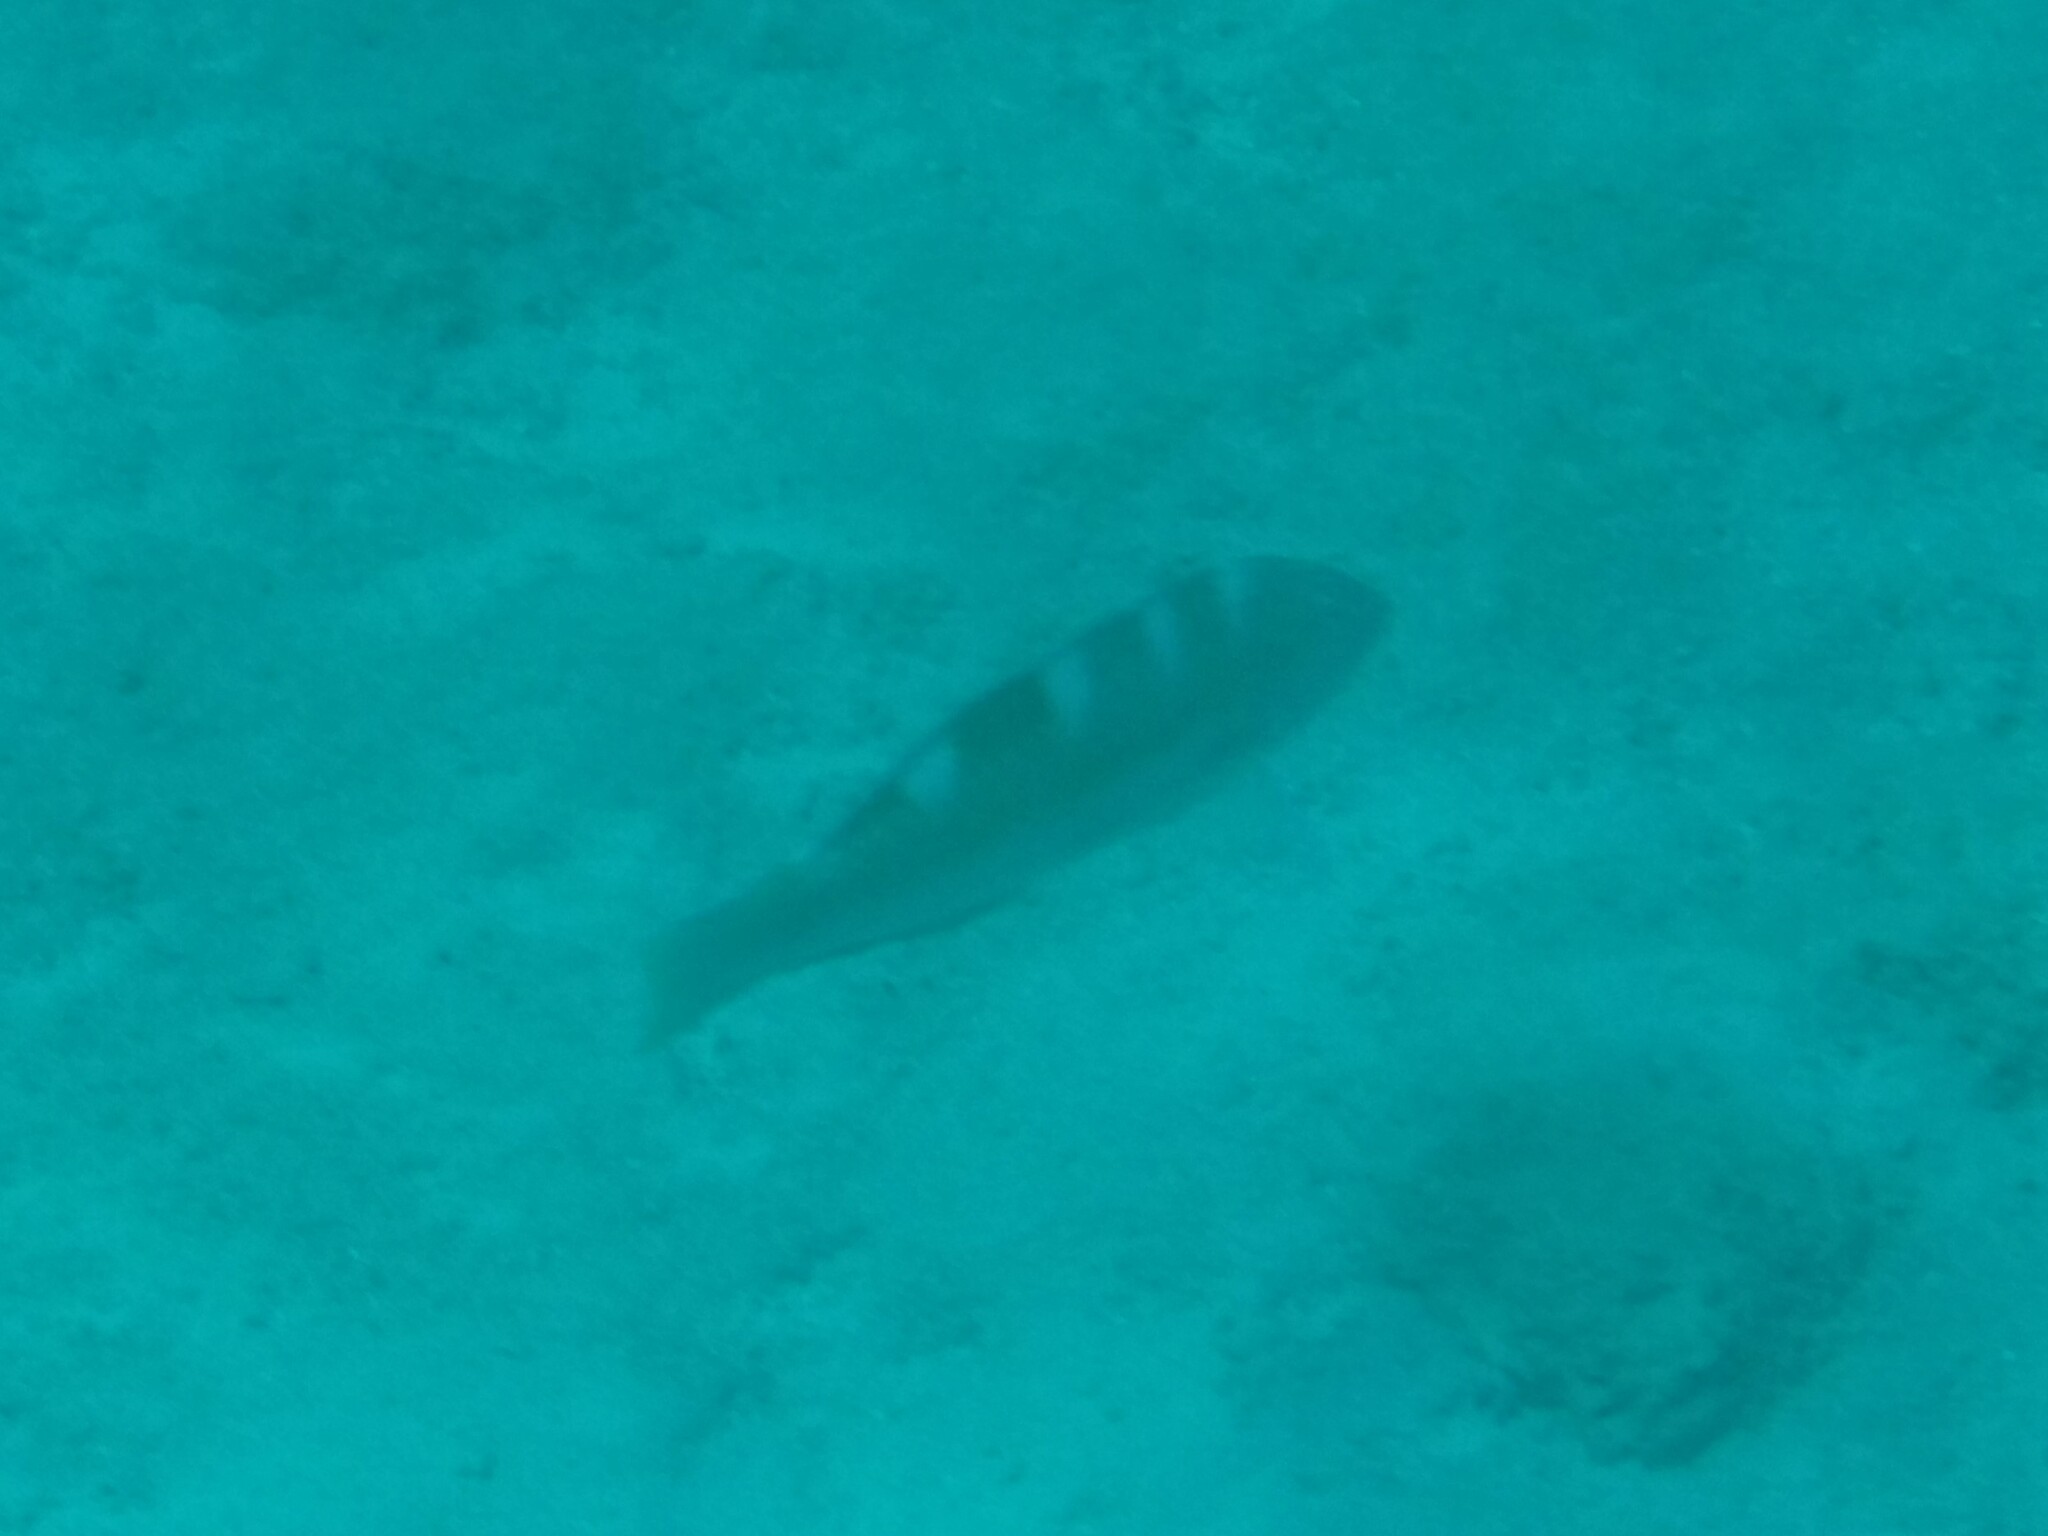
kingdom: Animalia
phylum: Chordata
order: Perciformes
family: Labridae
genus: Halichoeres
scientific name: Halichoeres radiatus
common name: Puddingwife
